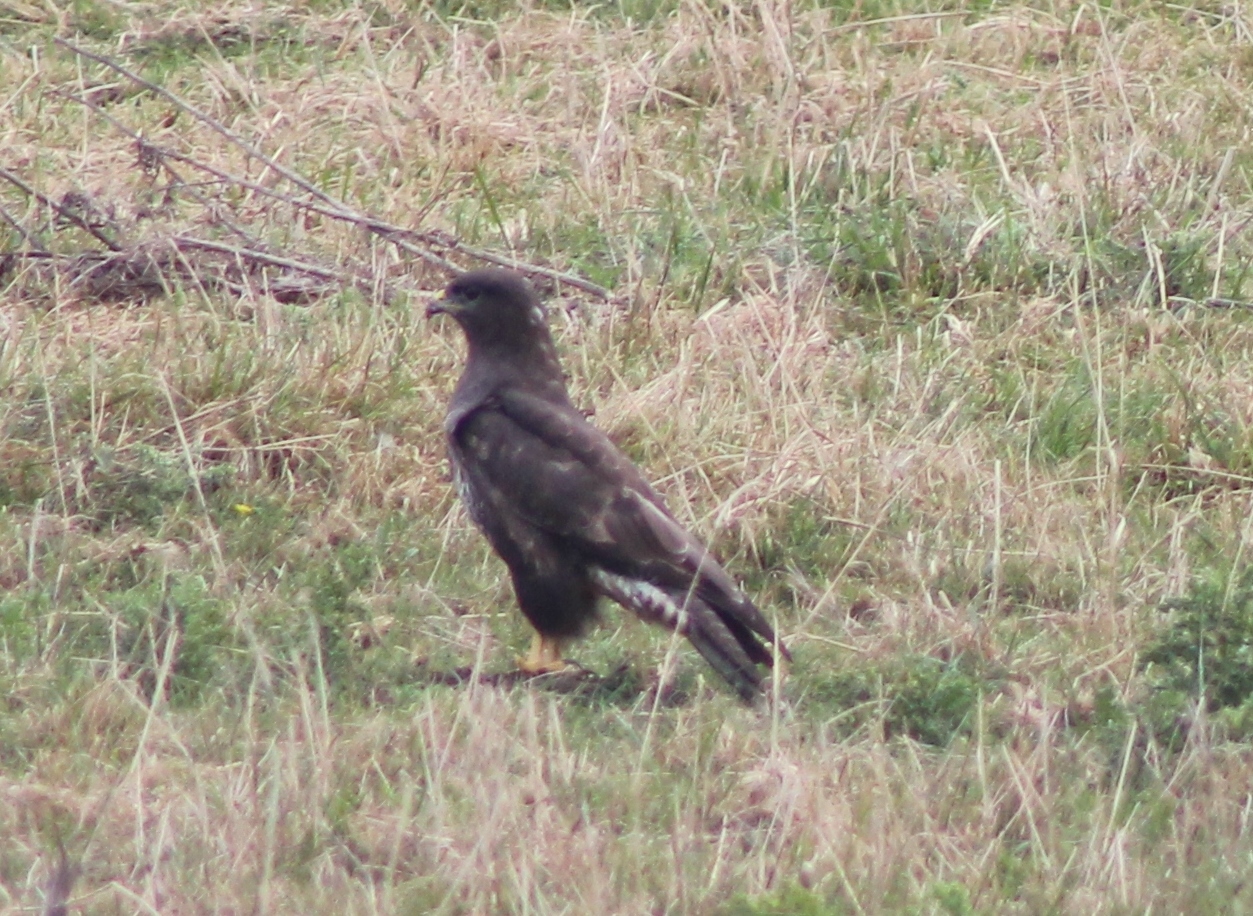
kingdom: Animalia
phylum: Chordata
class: Aves
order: Accipitriformes
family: Accipitridae
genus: Buteo
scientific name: Buteo buteo
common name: Common buzzard
